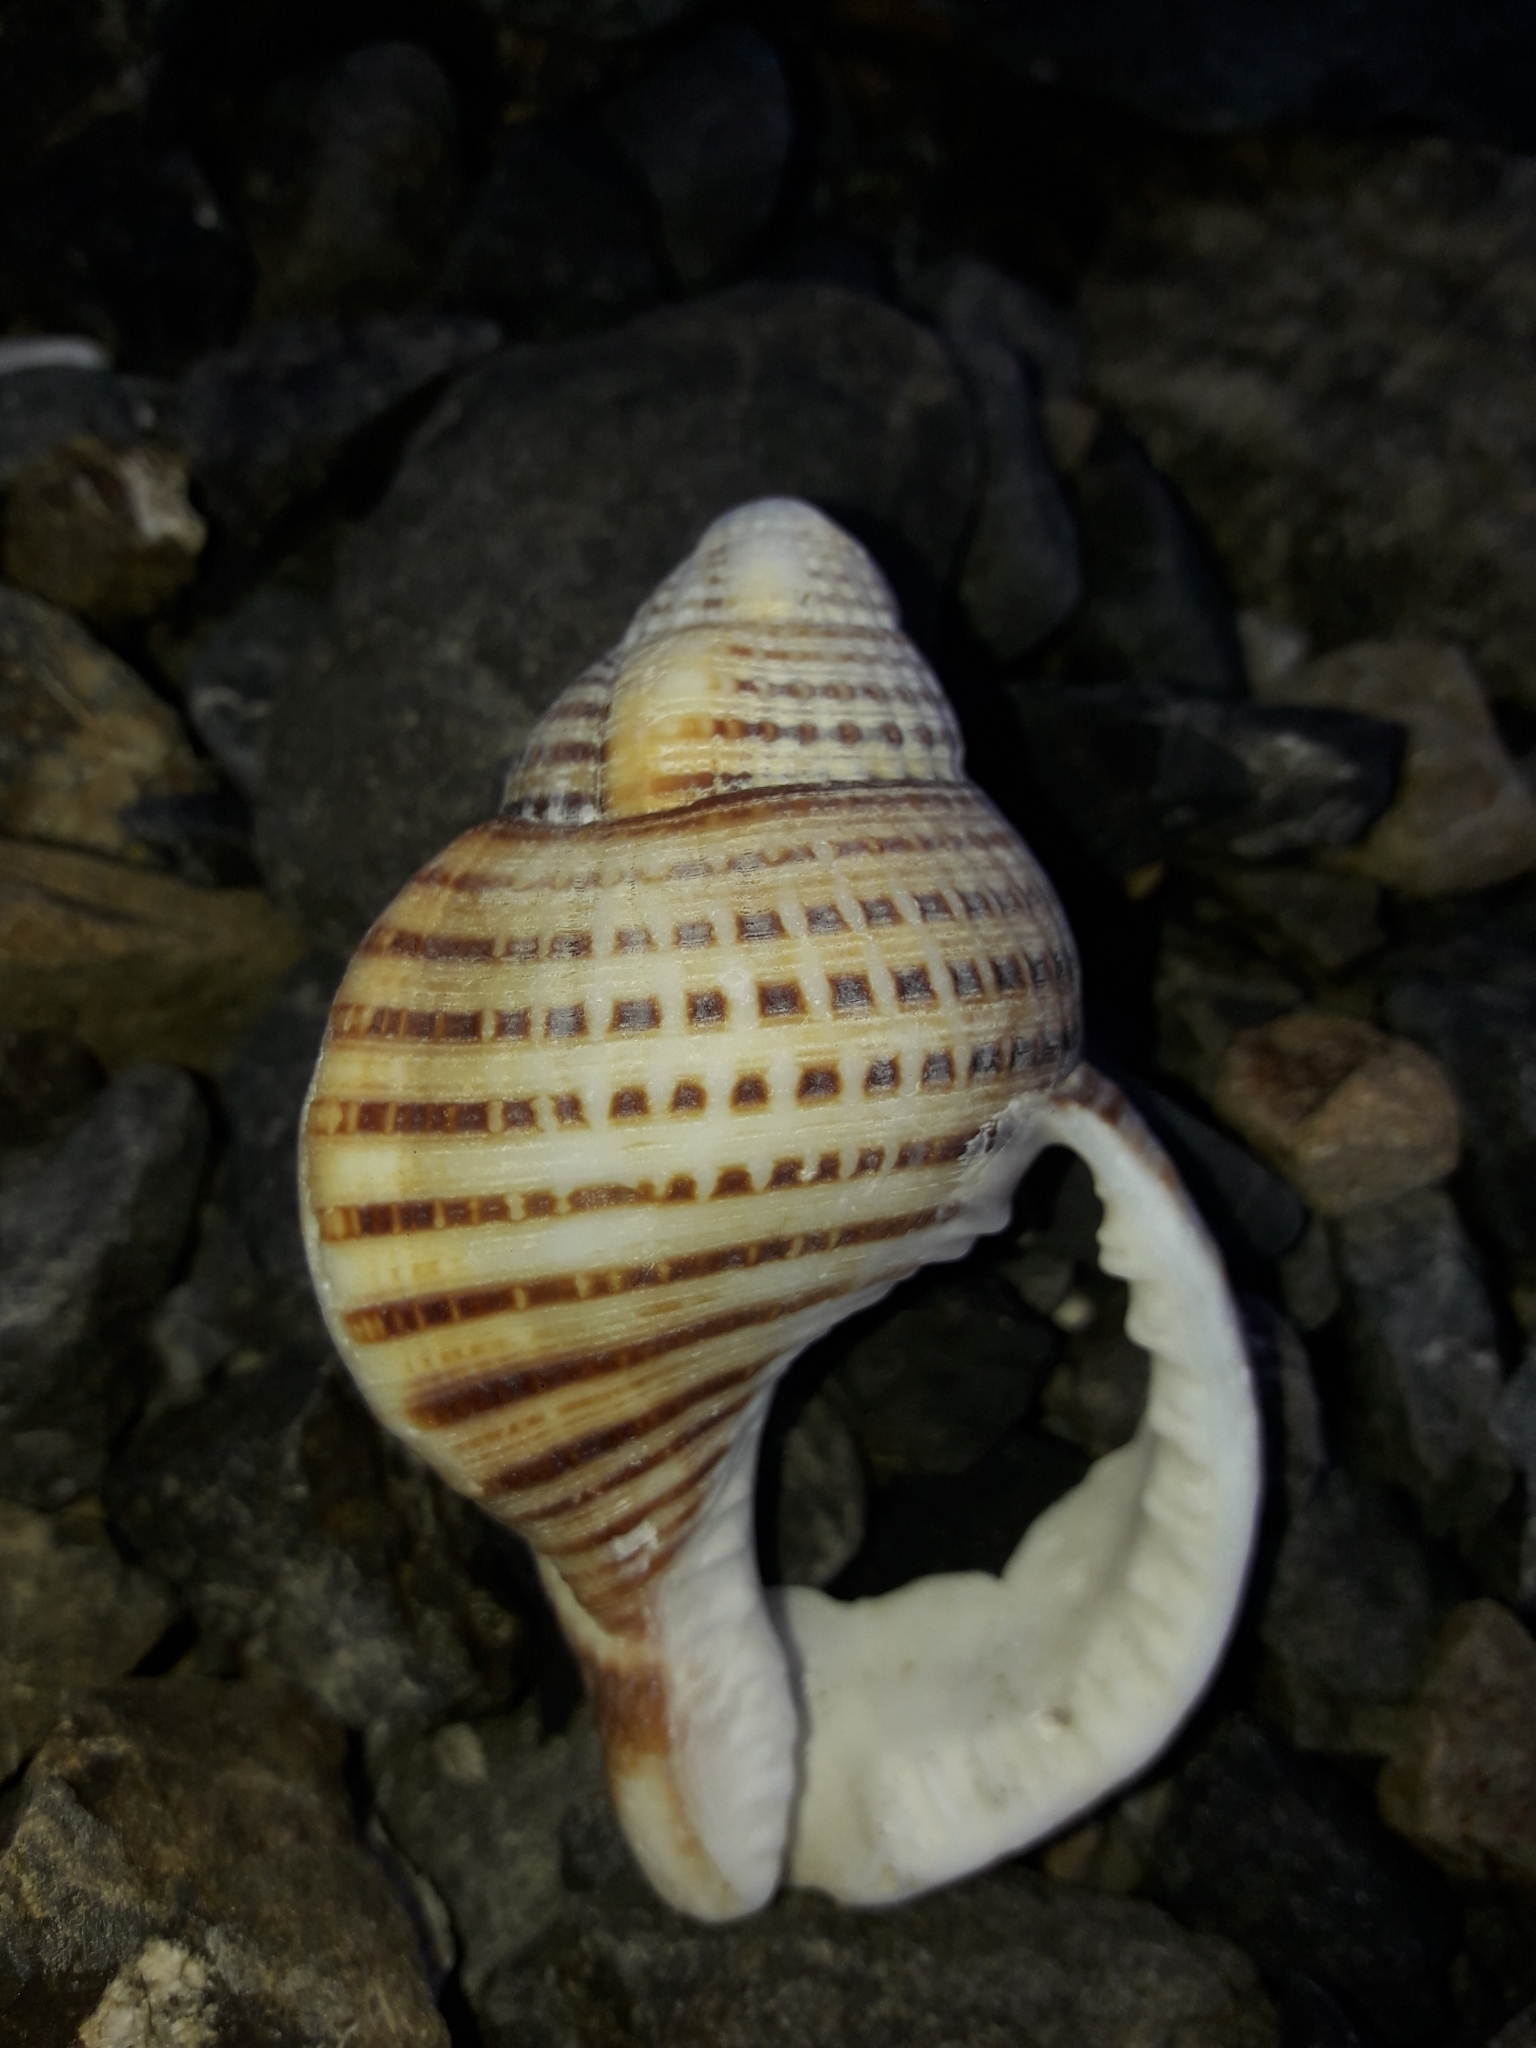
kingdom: Animalia
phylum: Mollusca
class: Gastropoda
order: Littorinimorpha
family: Cymatiidae
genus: Argobuccinum
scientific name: Argobuccinum pustulosum
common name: Pustular triton
